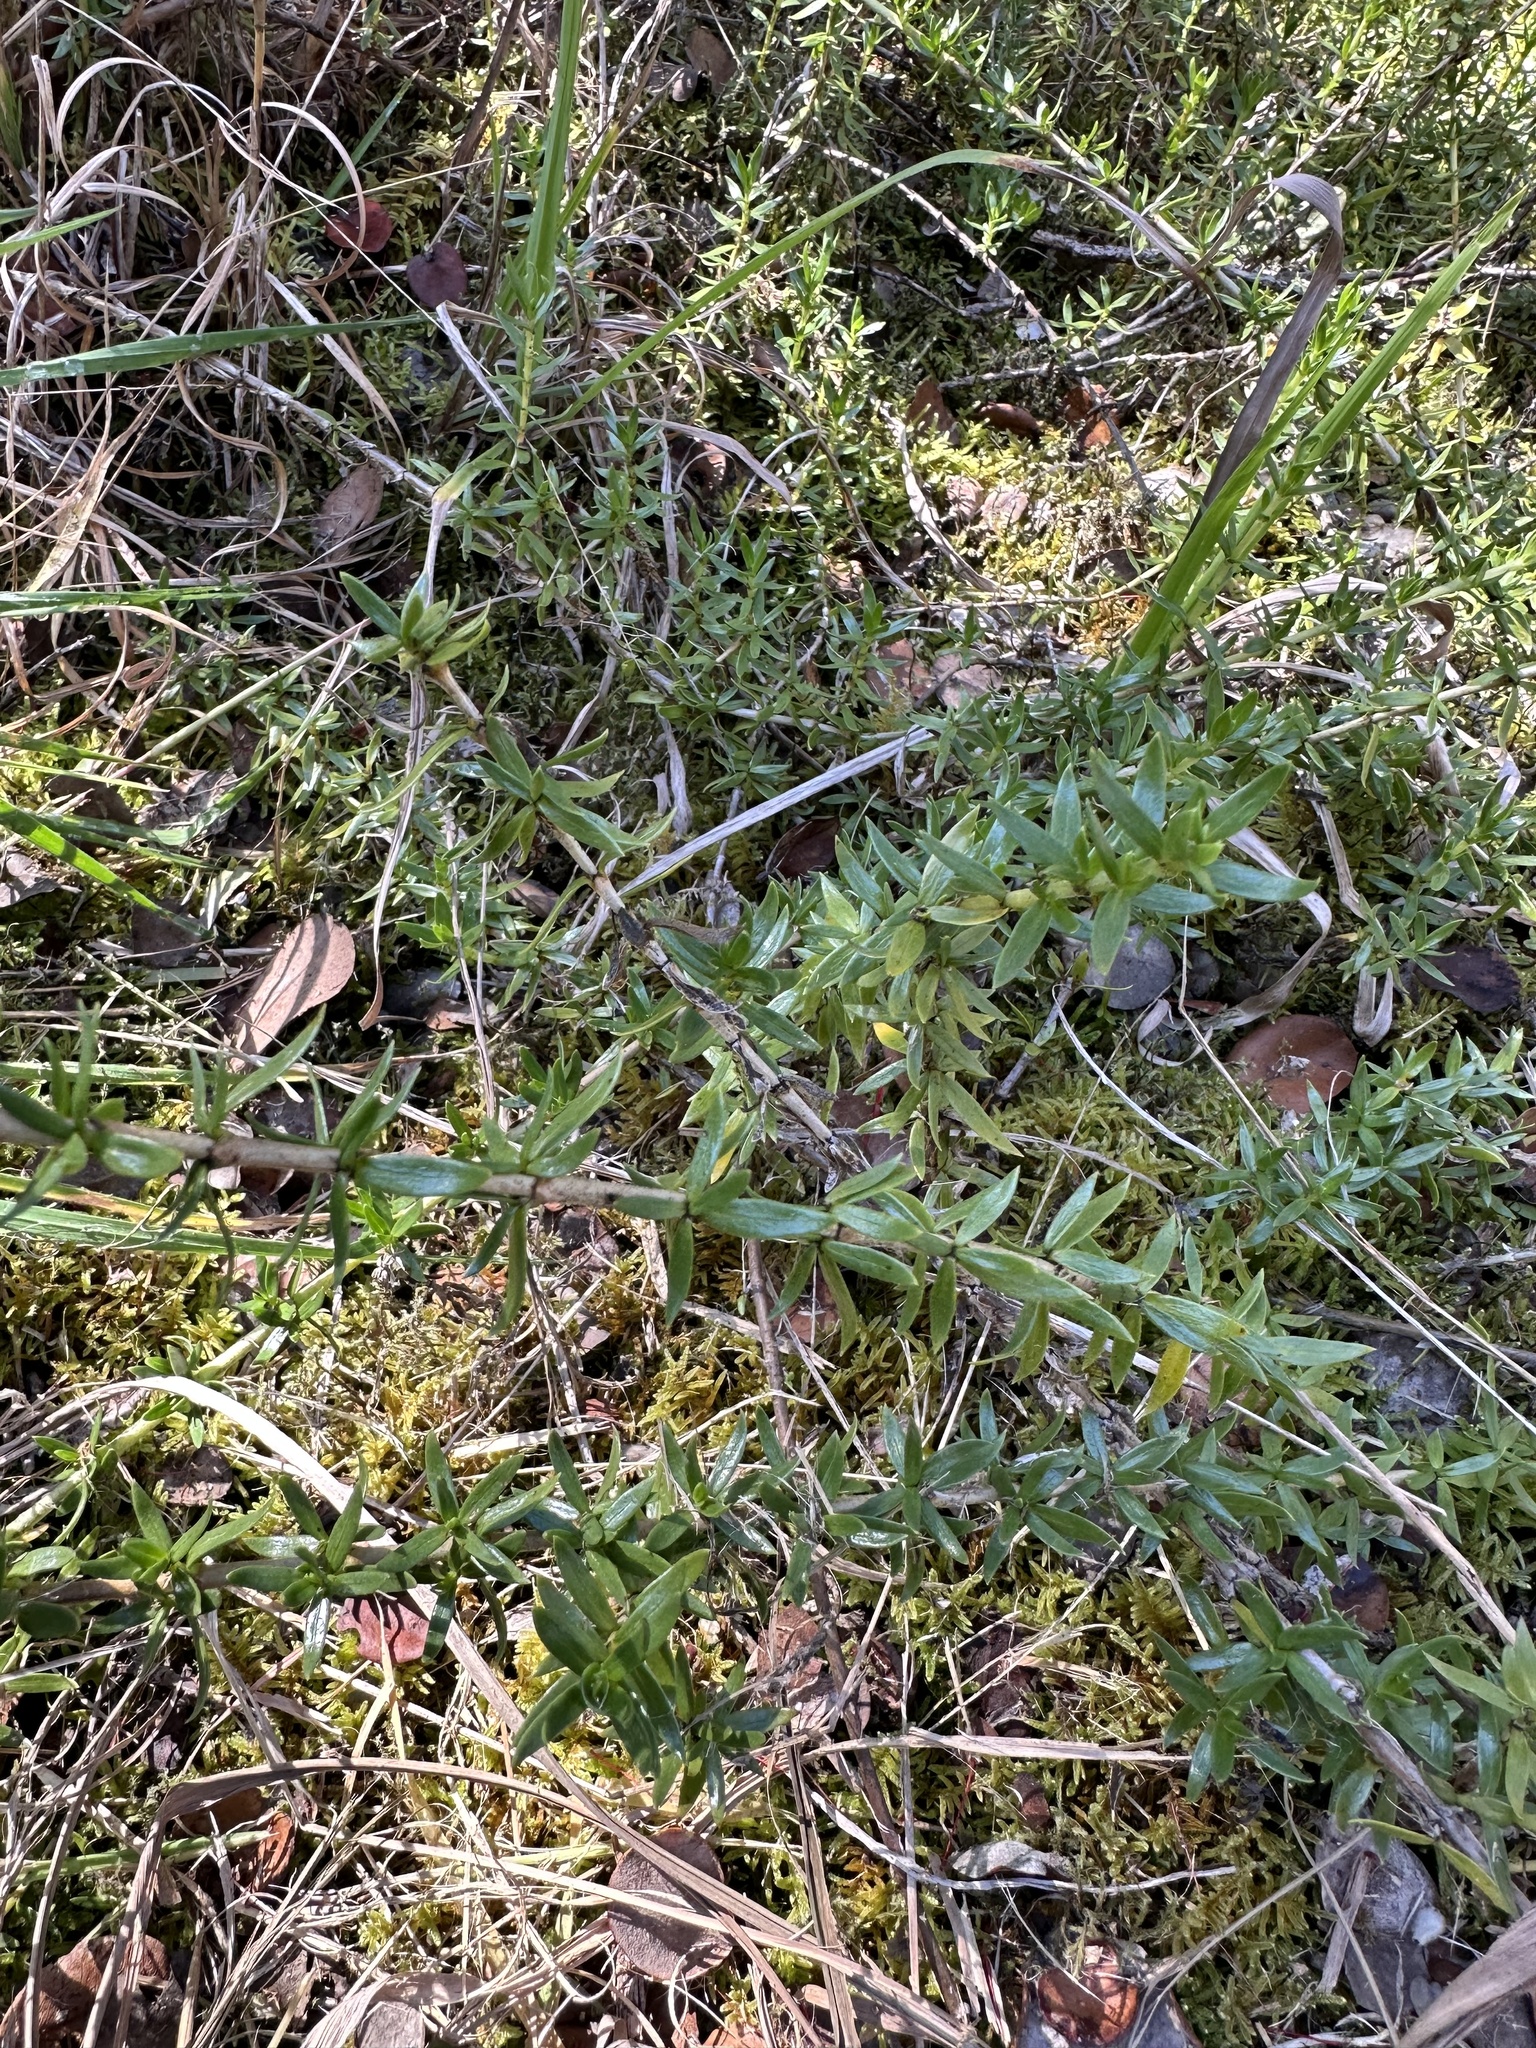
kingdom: Plantae
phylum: Tracheophyta
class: Magnoliopsida
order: Gentianales
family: Rubiaceae
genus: Coprosma
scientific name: Coprosma ernodeoides
